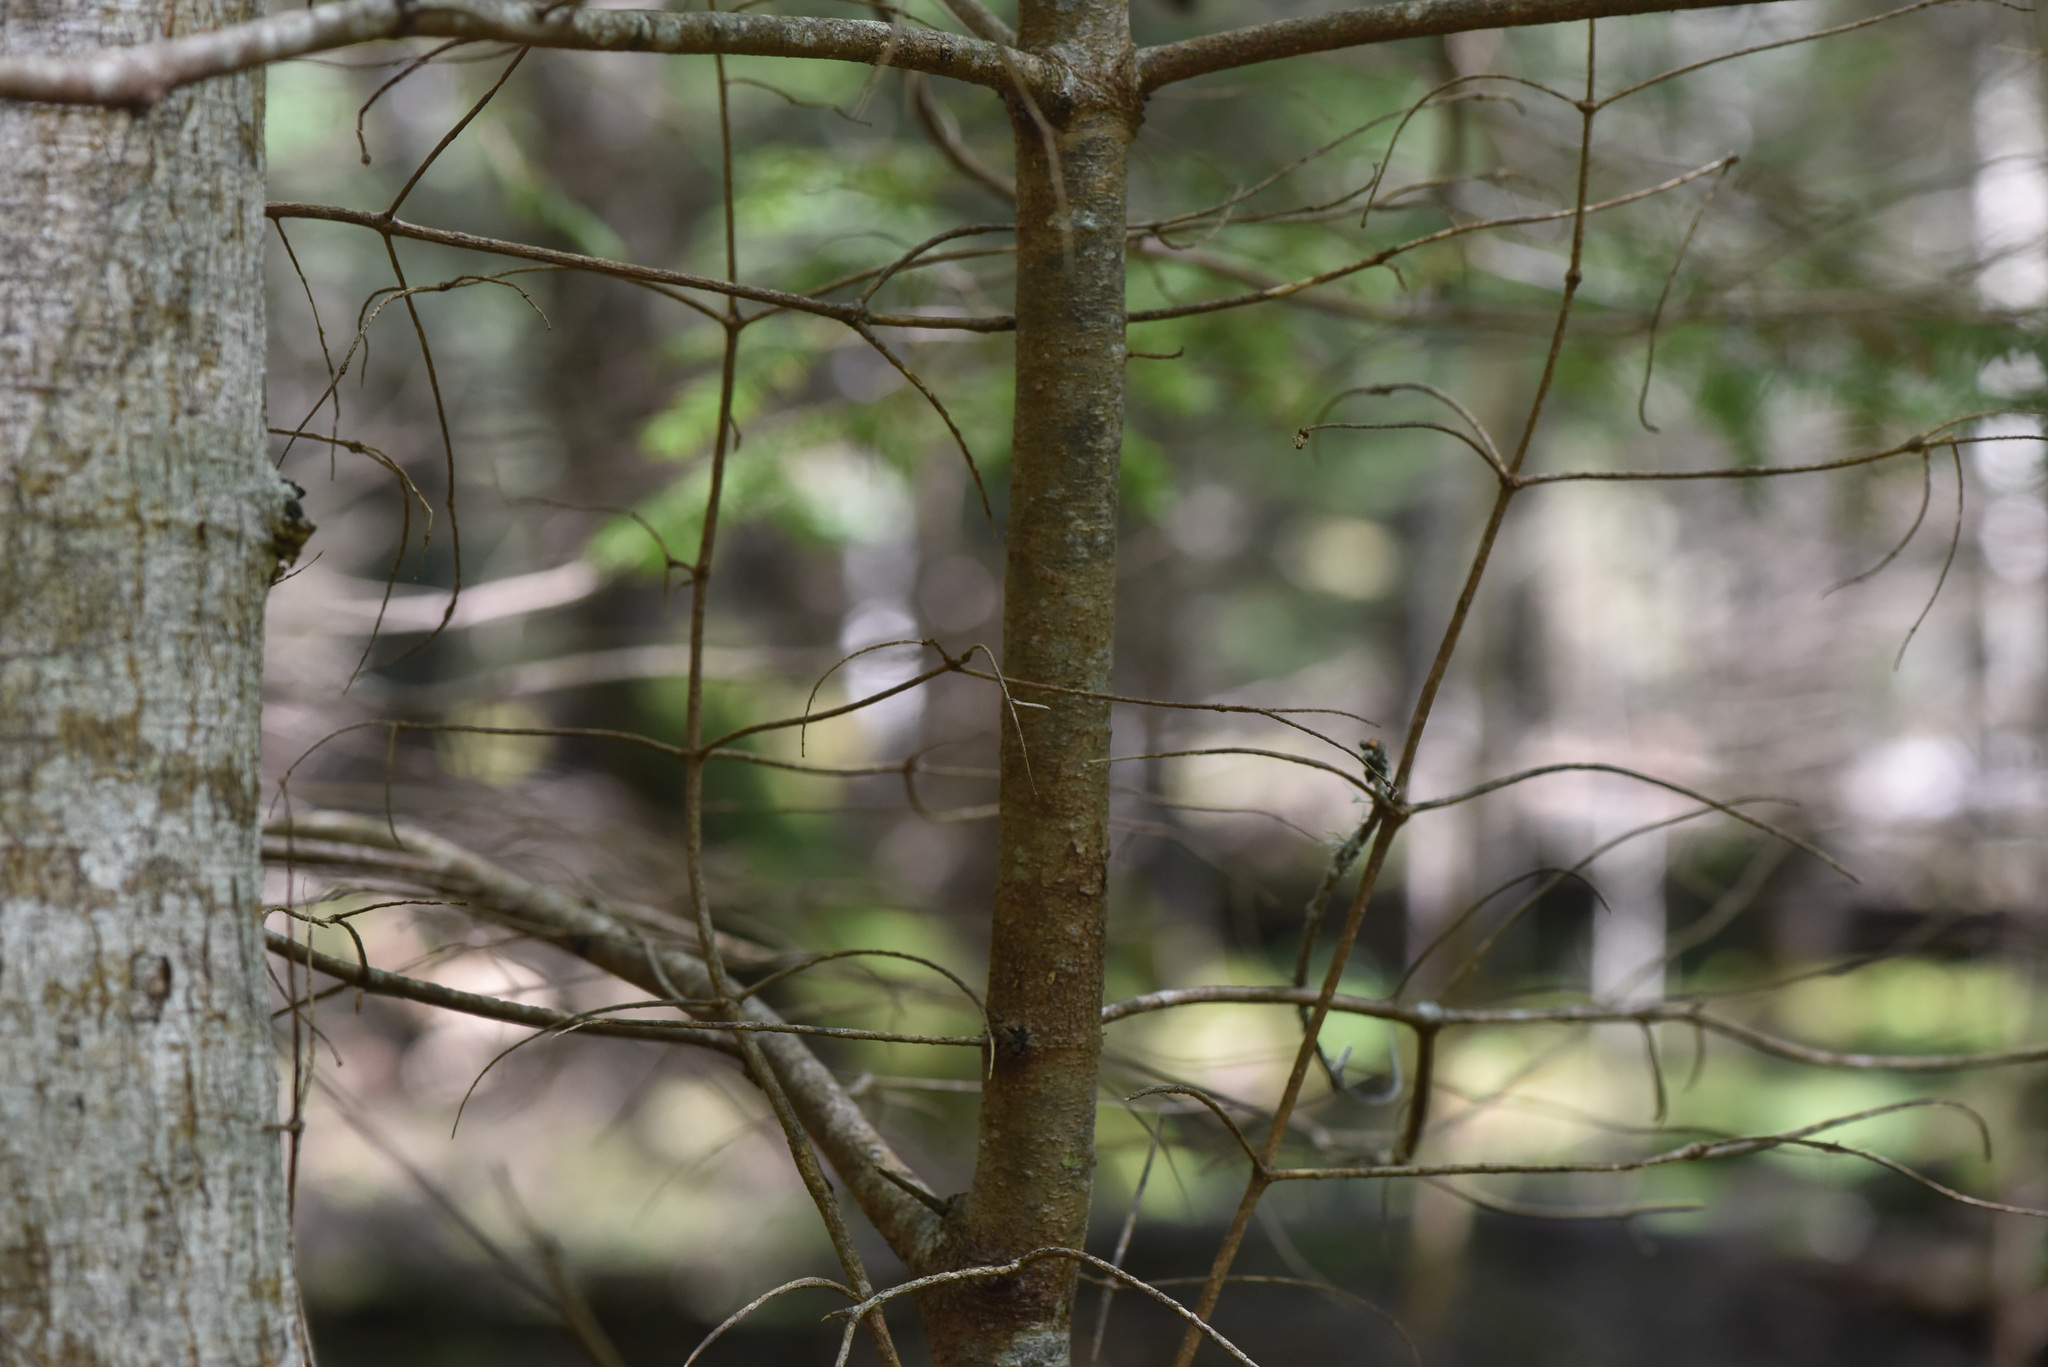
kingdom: Plantae
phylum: Tracheophyta
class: Pinopsida
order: Pinales
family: Pinaceae
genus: Abies
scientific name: Abies grandis
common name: Giant fir
